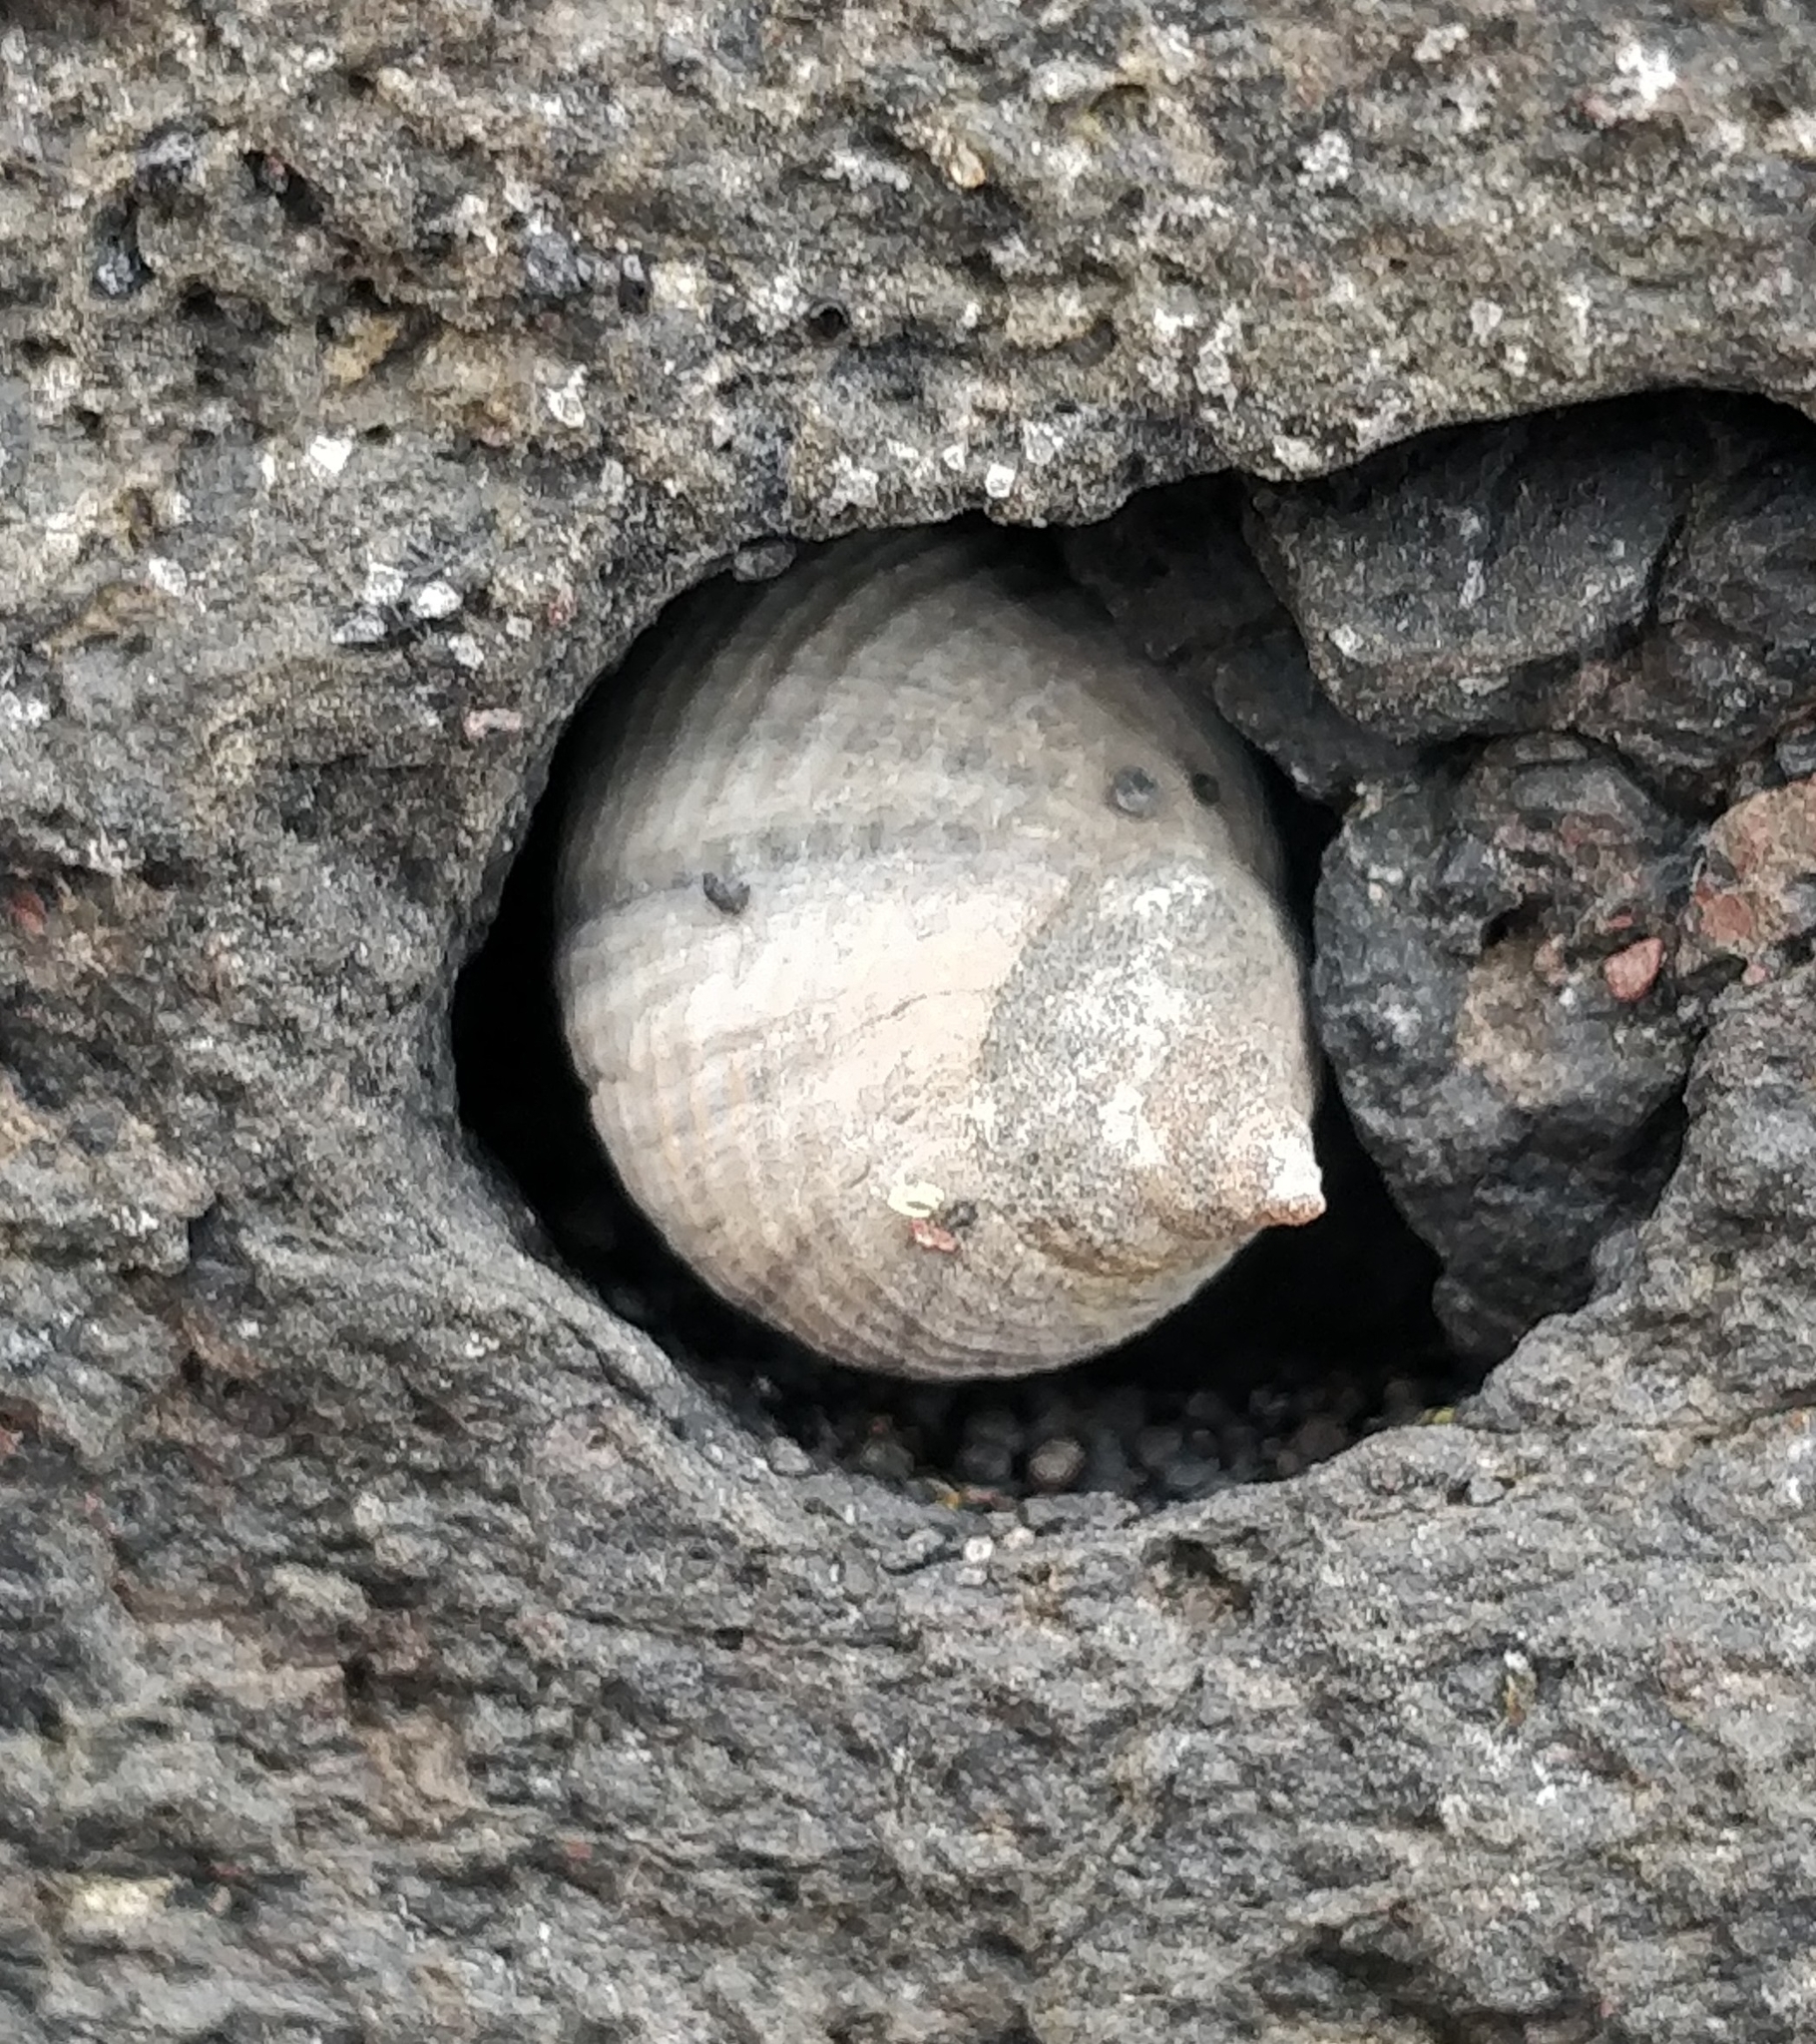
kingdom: Animalia
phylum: Mollusca
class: Gastropoda
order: Littorinimorpha
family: Littorinidae
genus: Tectarius
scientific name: Tectarius striatus
